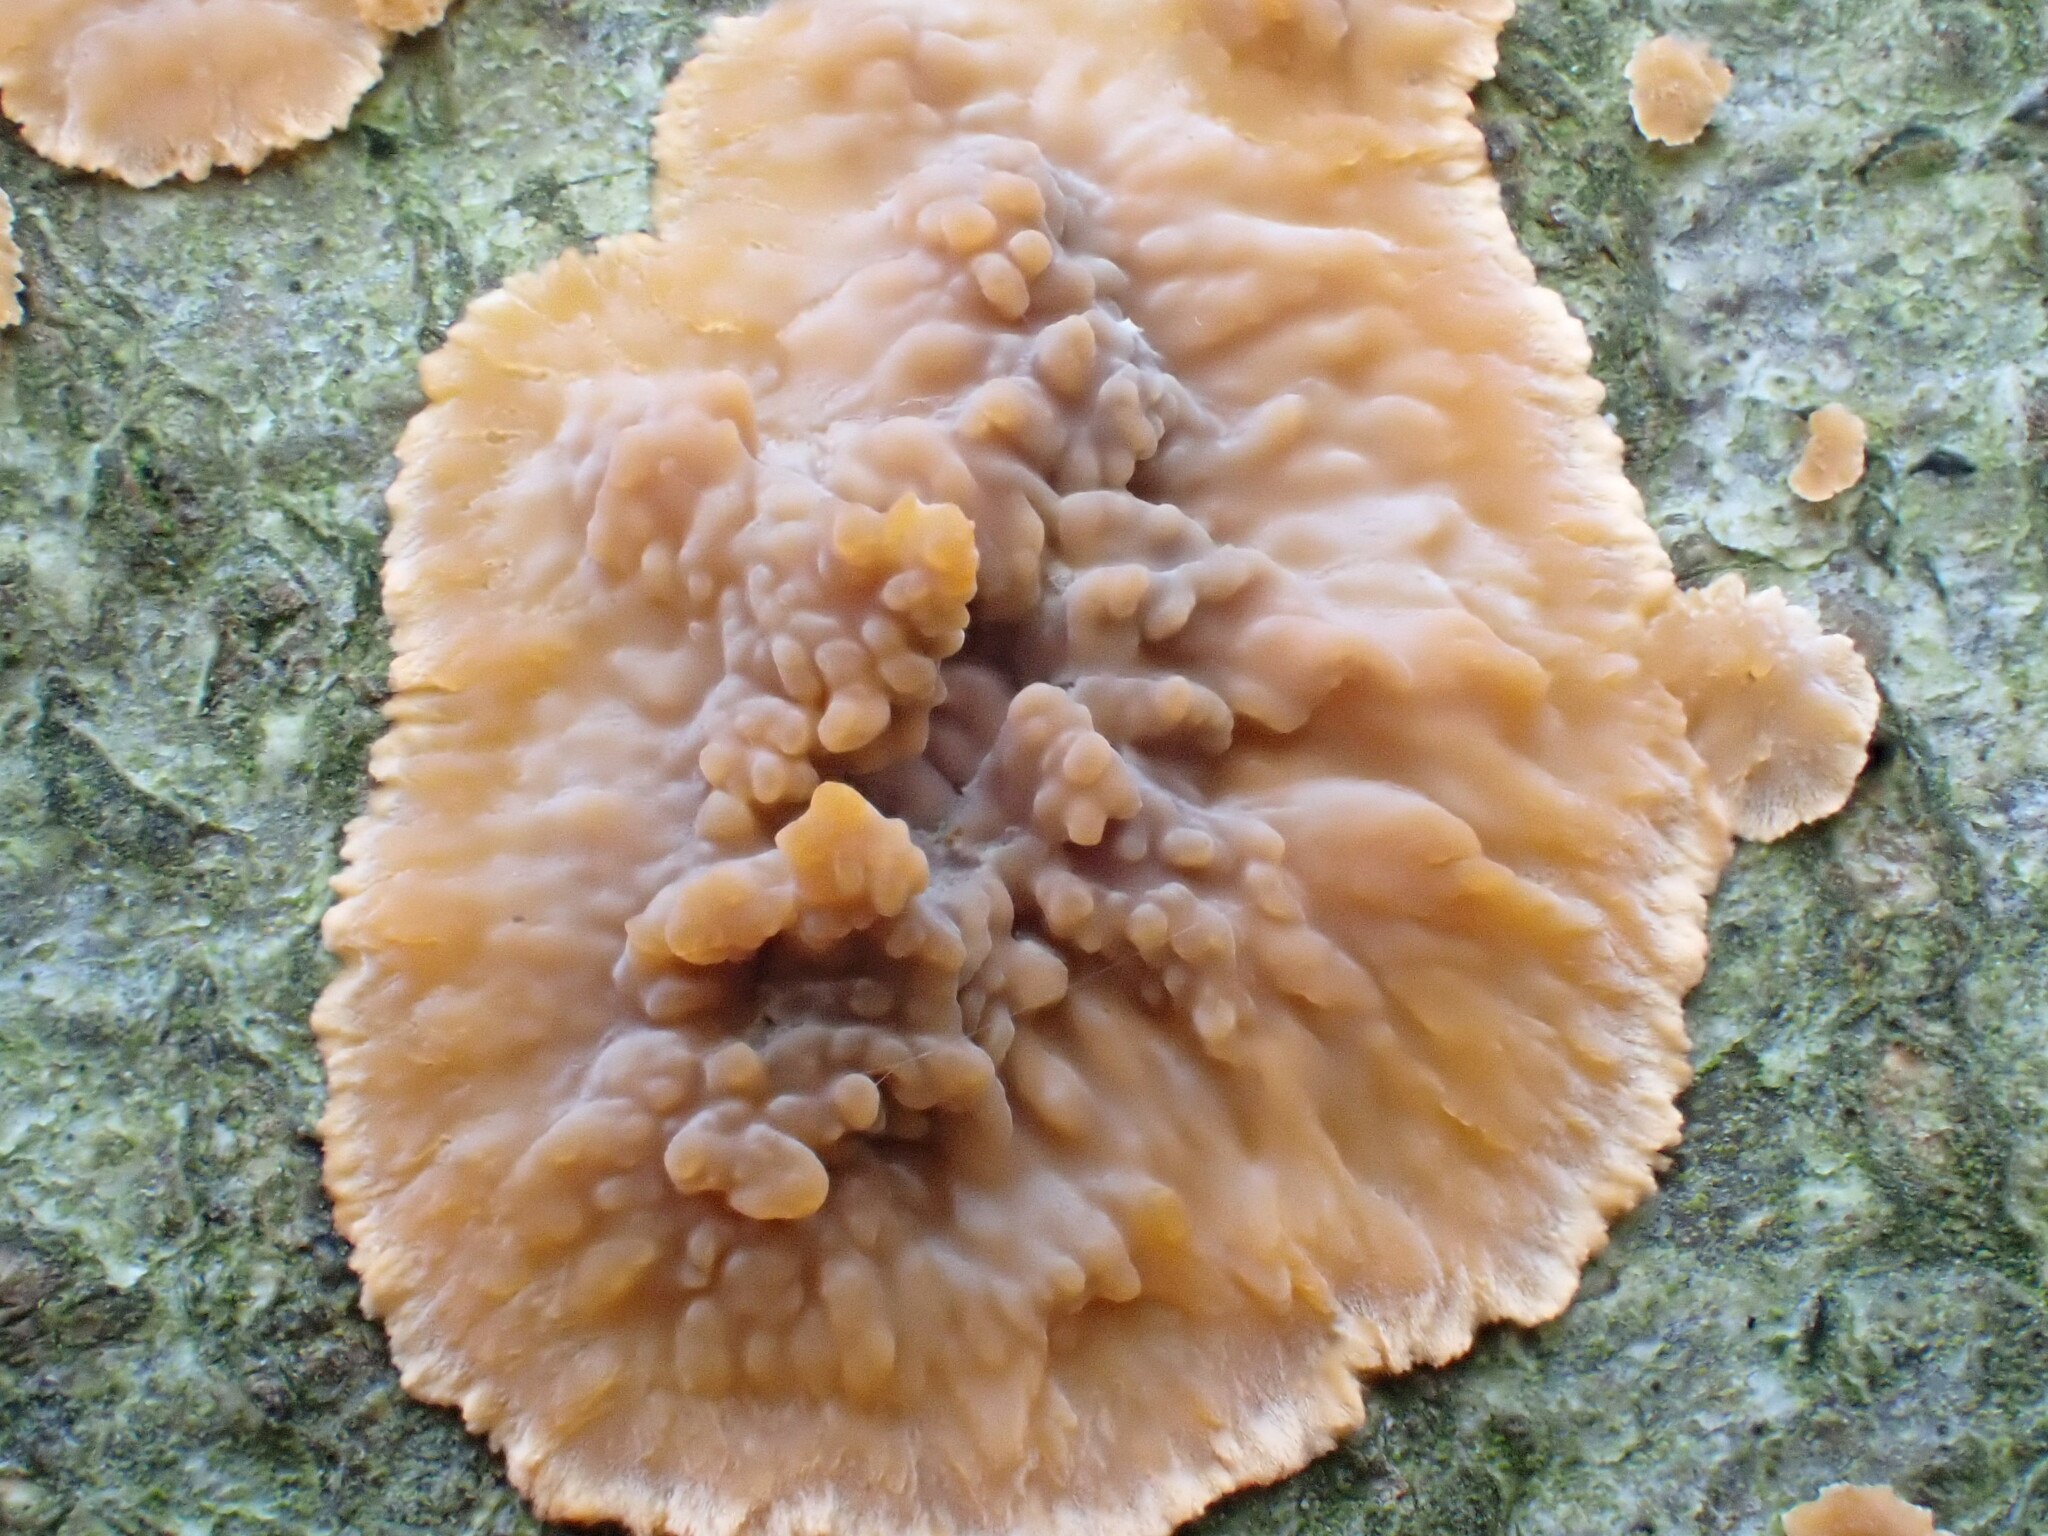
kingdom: Fungi
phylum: Basidiomycota
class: Agaricomycetes
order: Polyporales
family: Meruliaceae
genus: Phlebia
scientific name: Phlebia radiata
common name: Wrinkled crust
